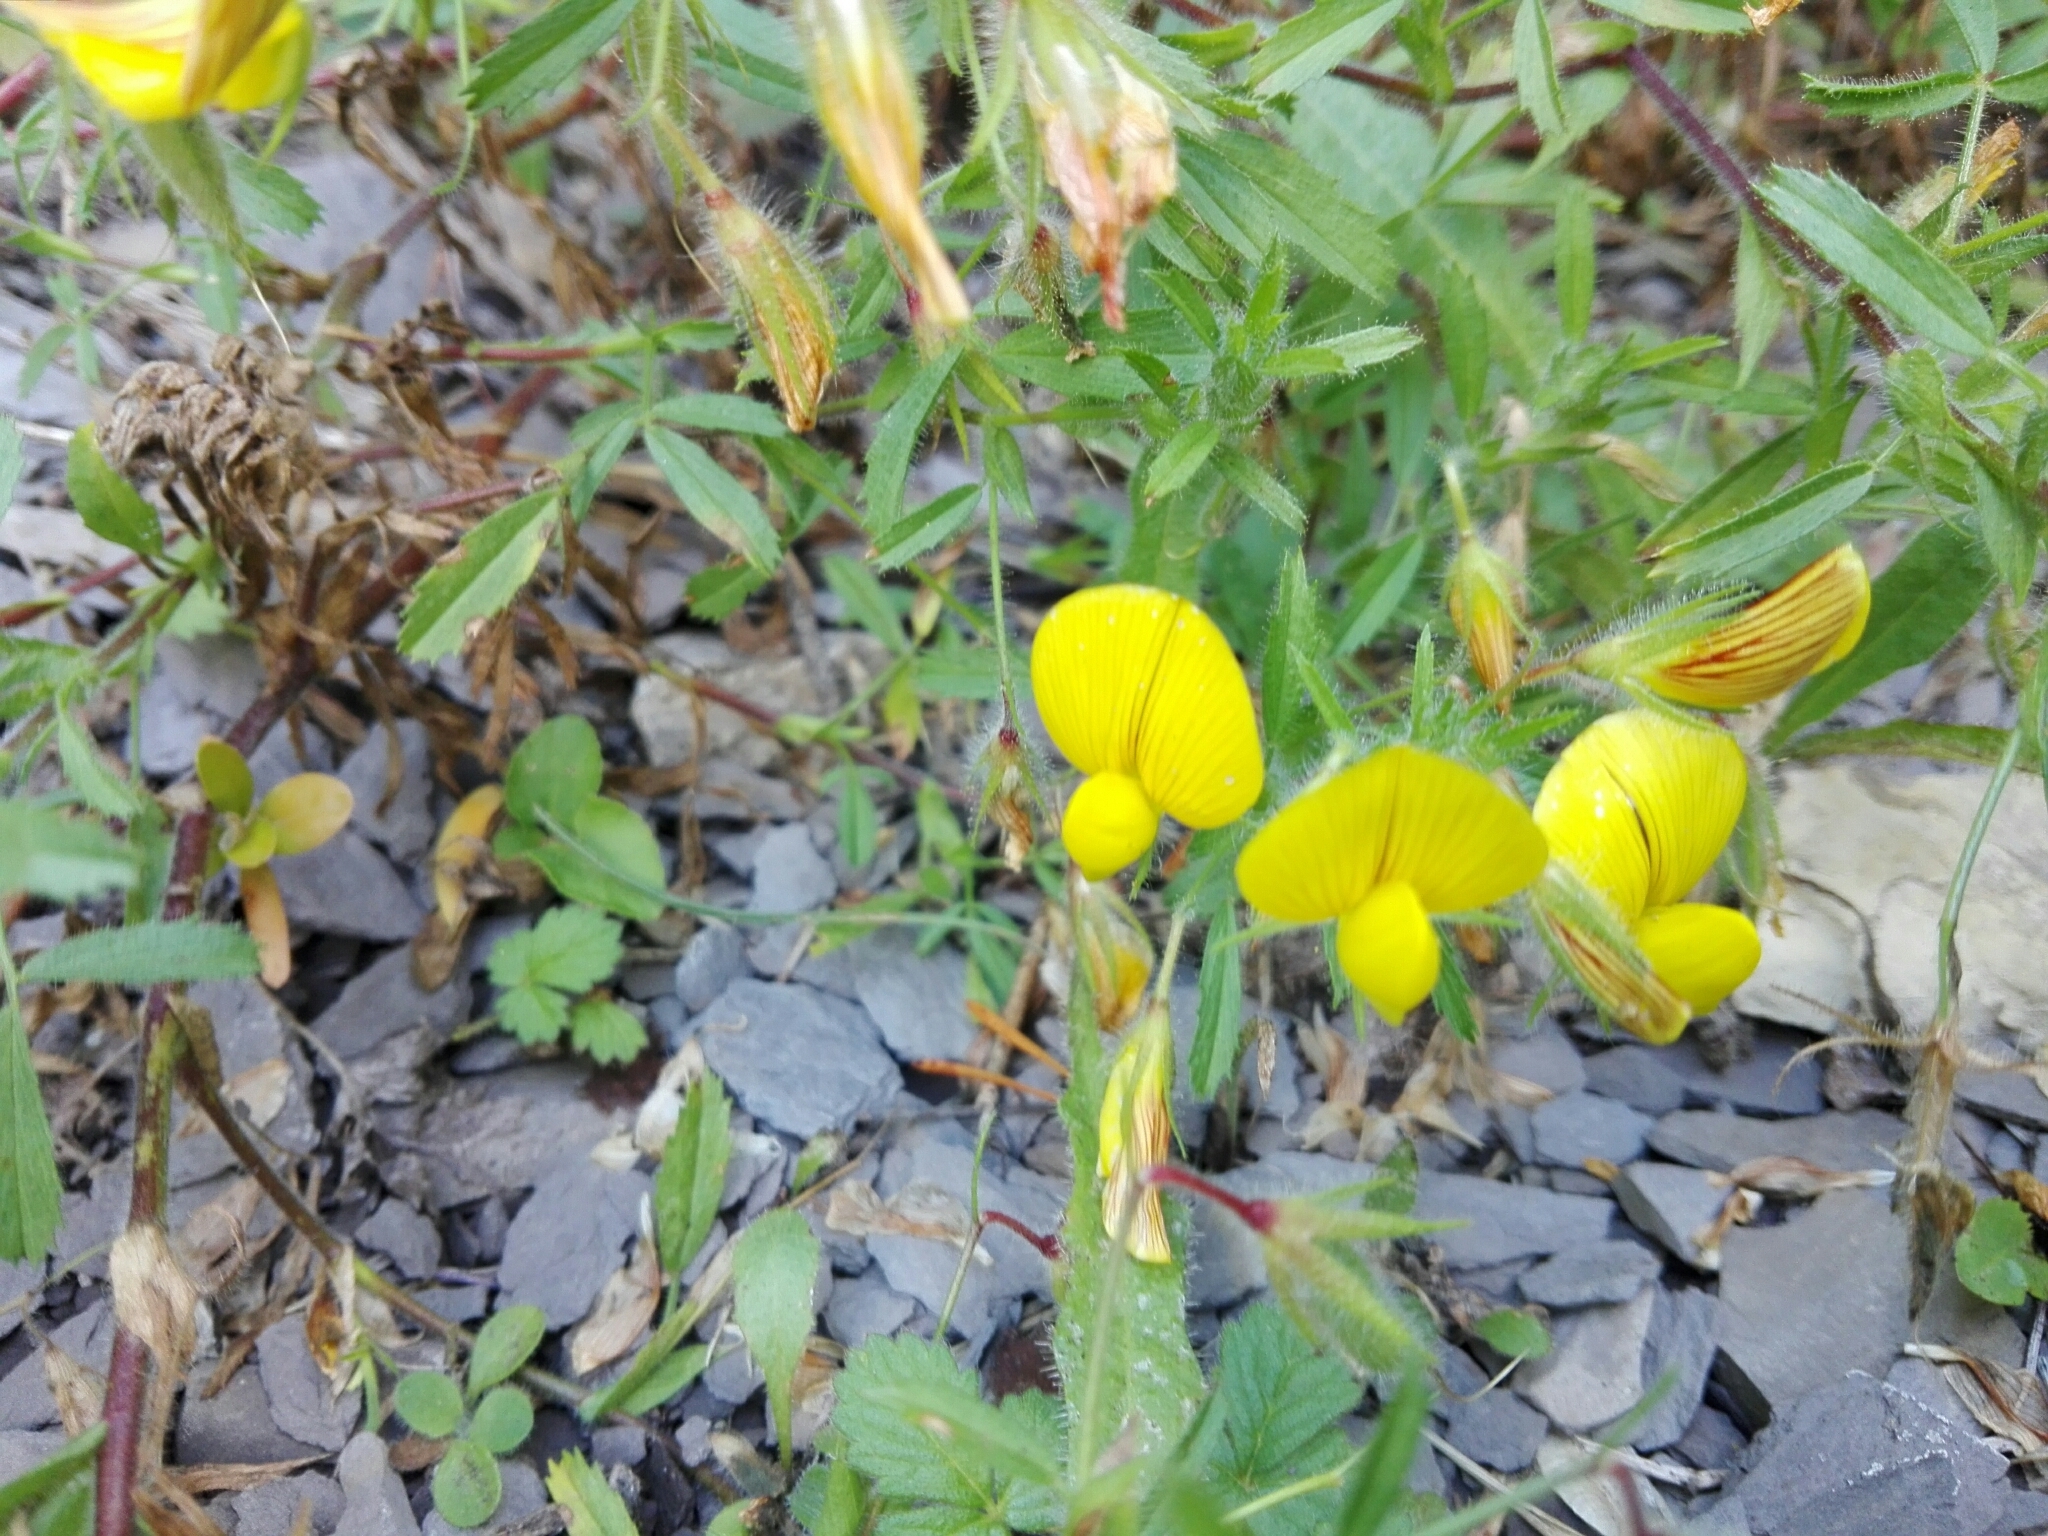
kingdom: Plantae
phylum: Tracheophyta
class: Magnoliopsida
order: Fabales
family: Fabaceae
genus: Ononis
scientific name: Ononis natrix
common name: Yellow restharrow
